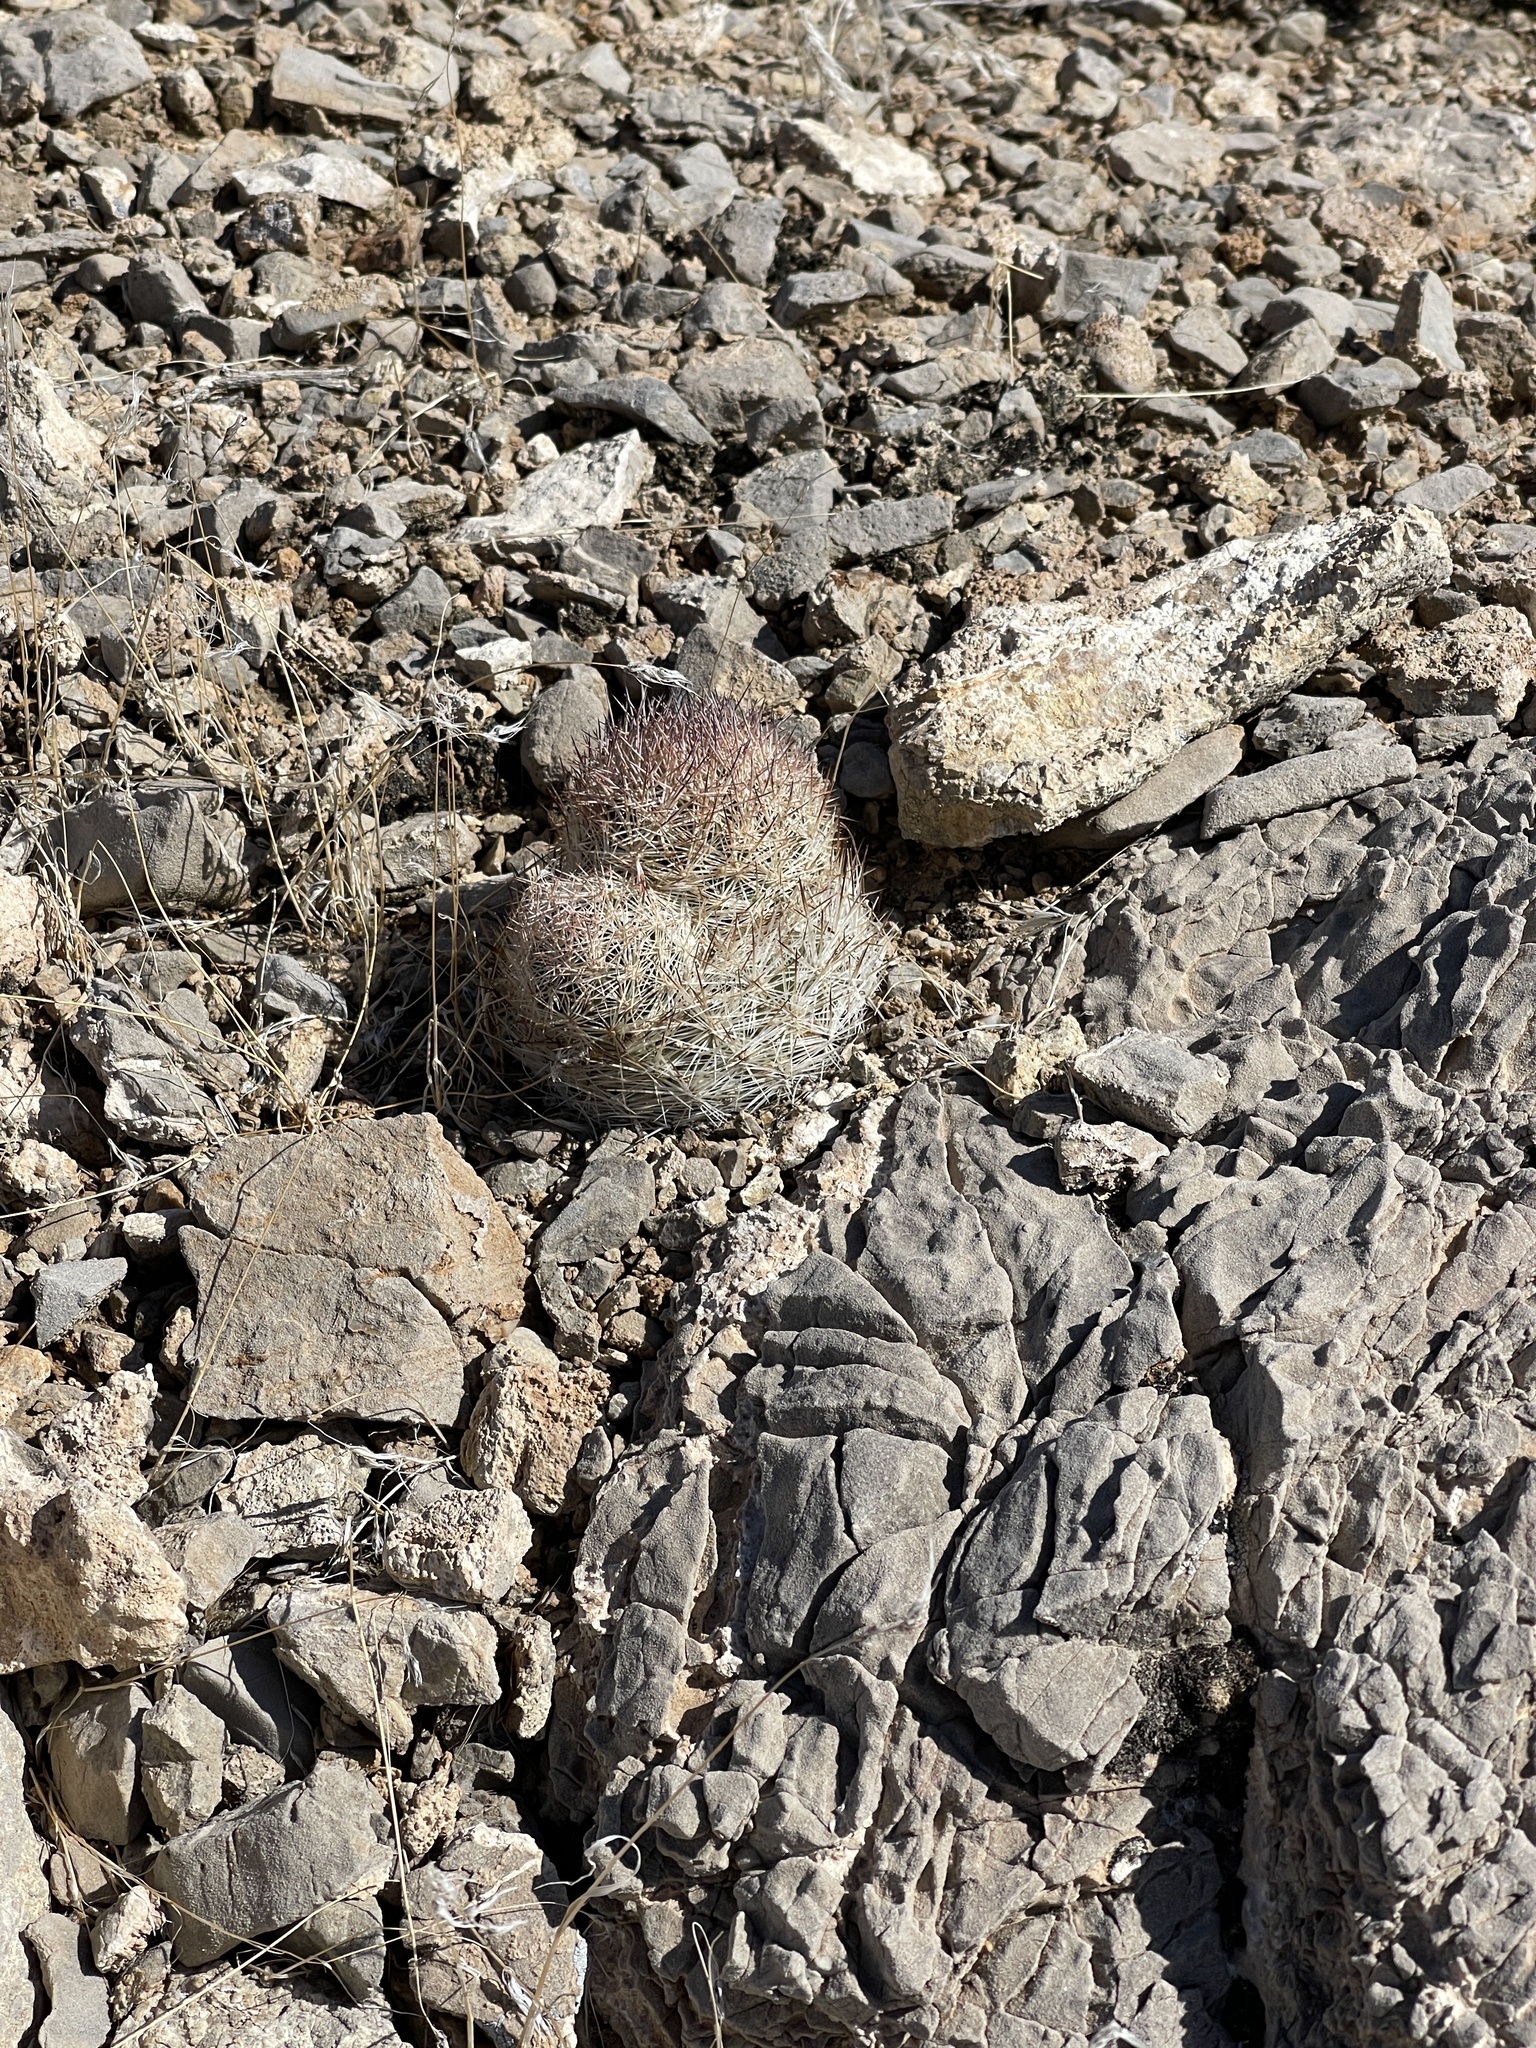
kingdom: Plantae
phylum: Tracheophyta
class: Magnoliopsida
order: Caryophyllales
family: Cactaceae
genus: Pelecyphora
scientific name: Pelecyphora dasyacantha
